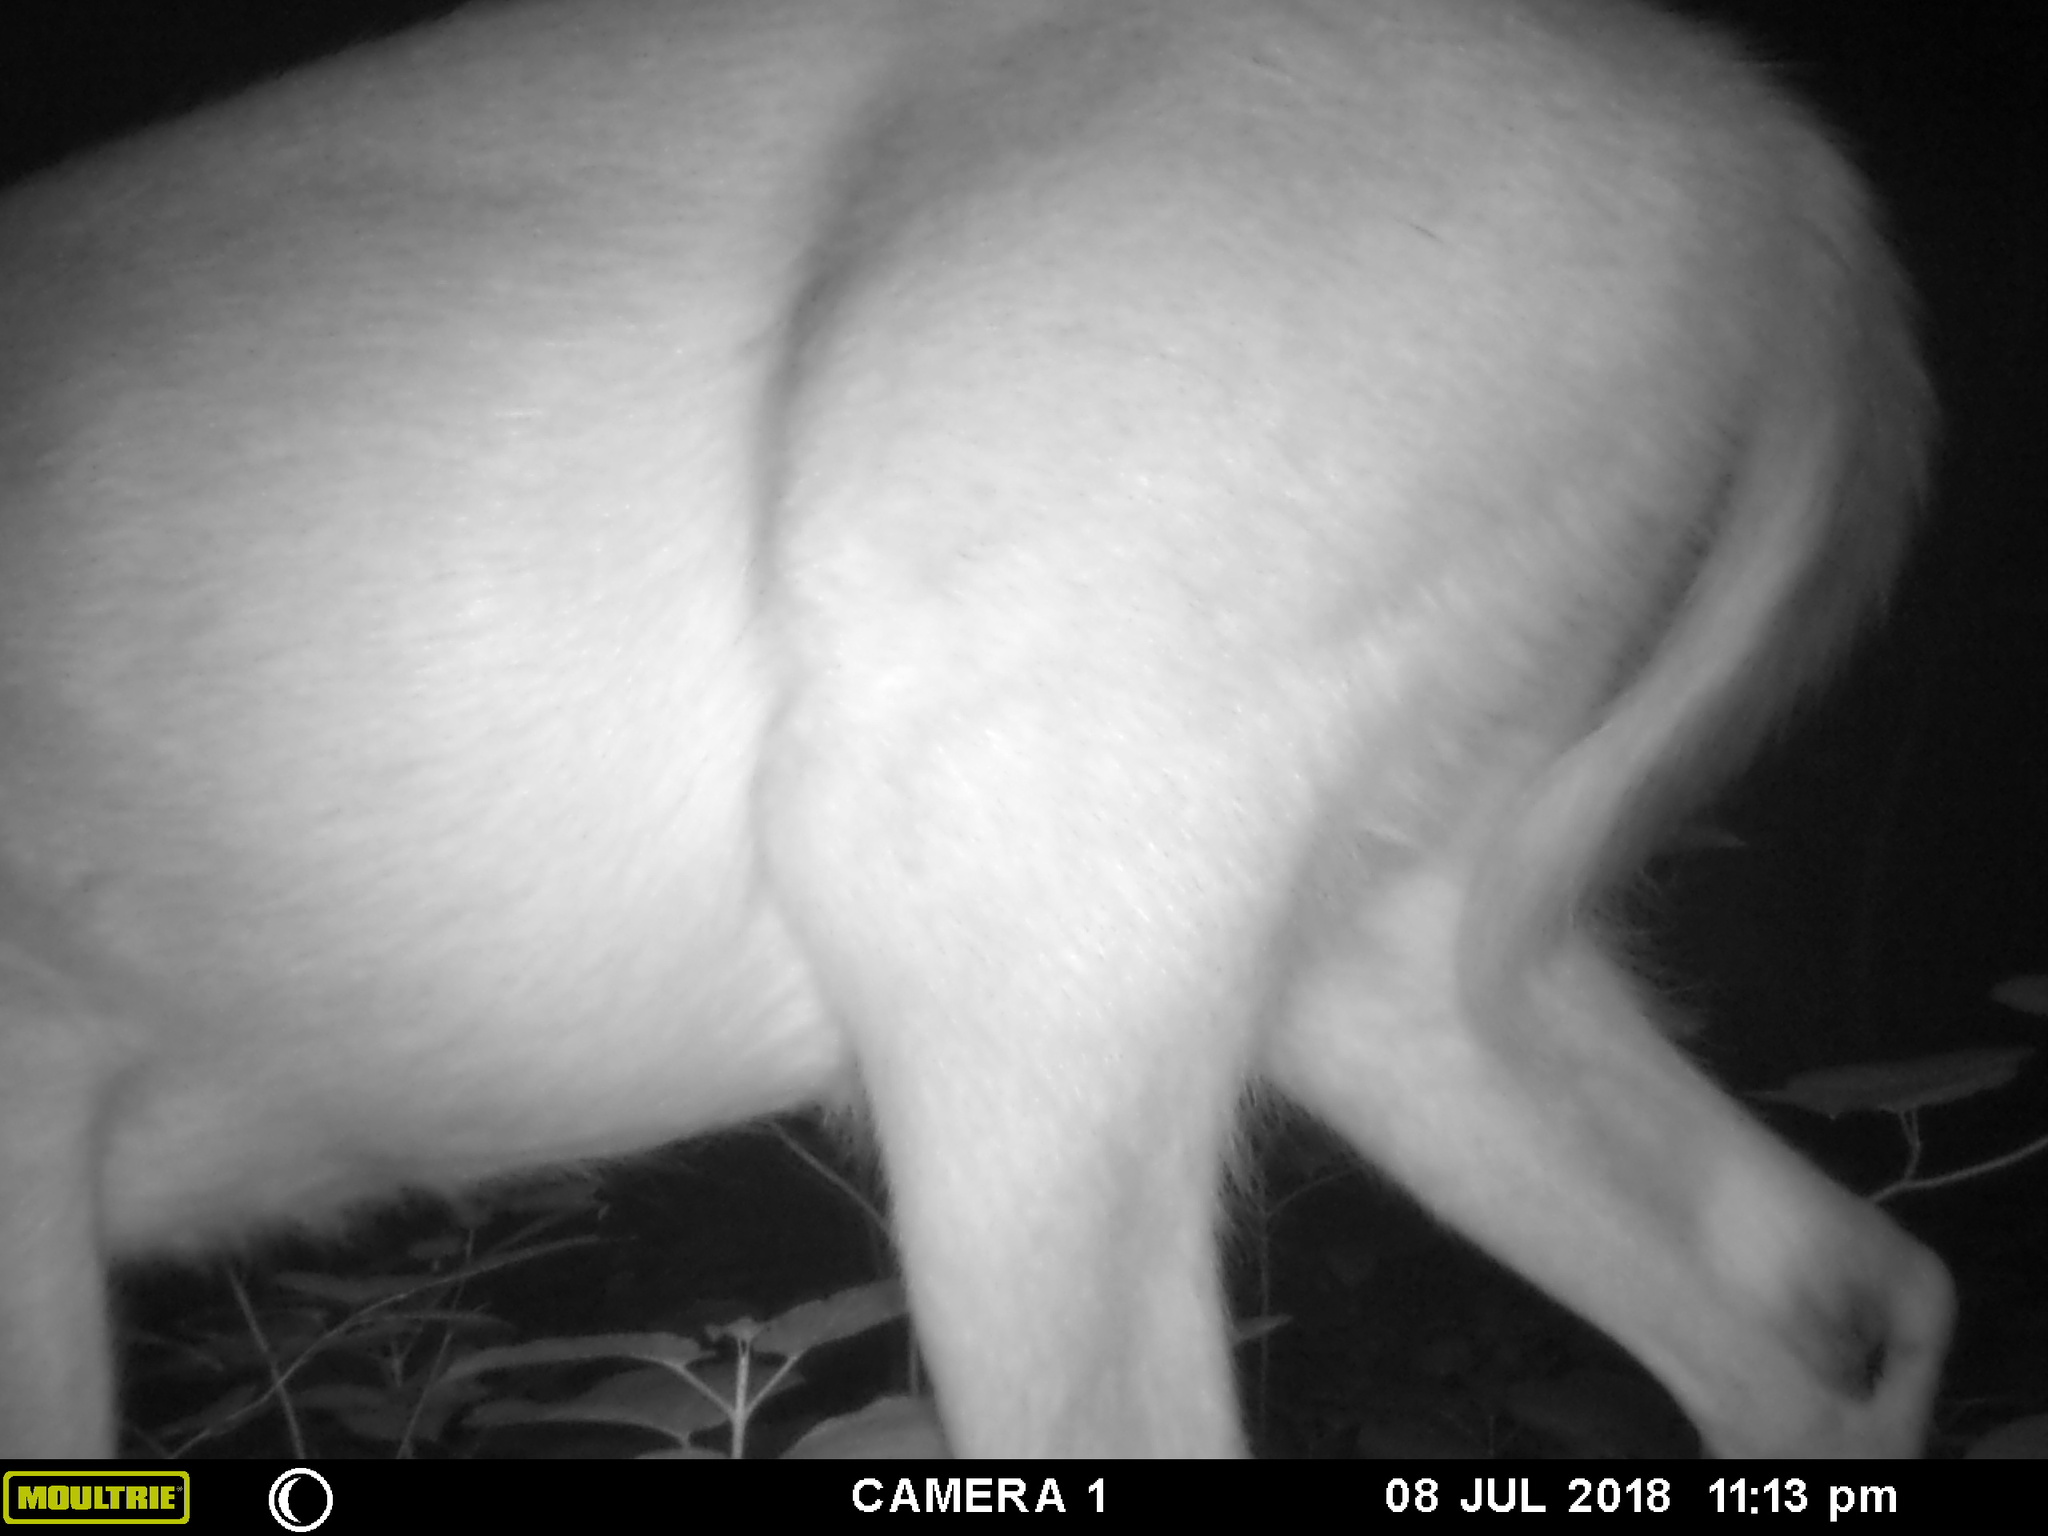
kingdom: Animalia
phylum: Chordata
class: Mammalia
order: Artiodactyla
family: Cervidae
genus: Odocoileus
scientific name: Odocoileus virginianus
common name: White-tailed deer
